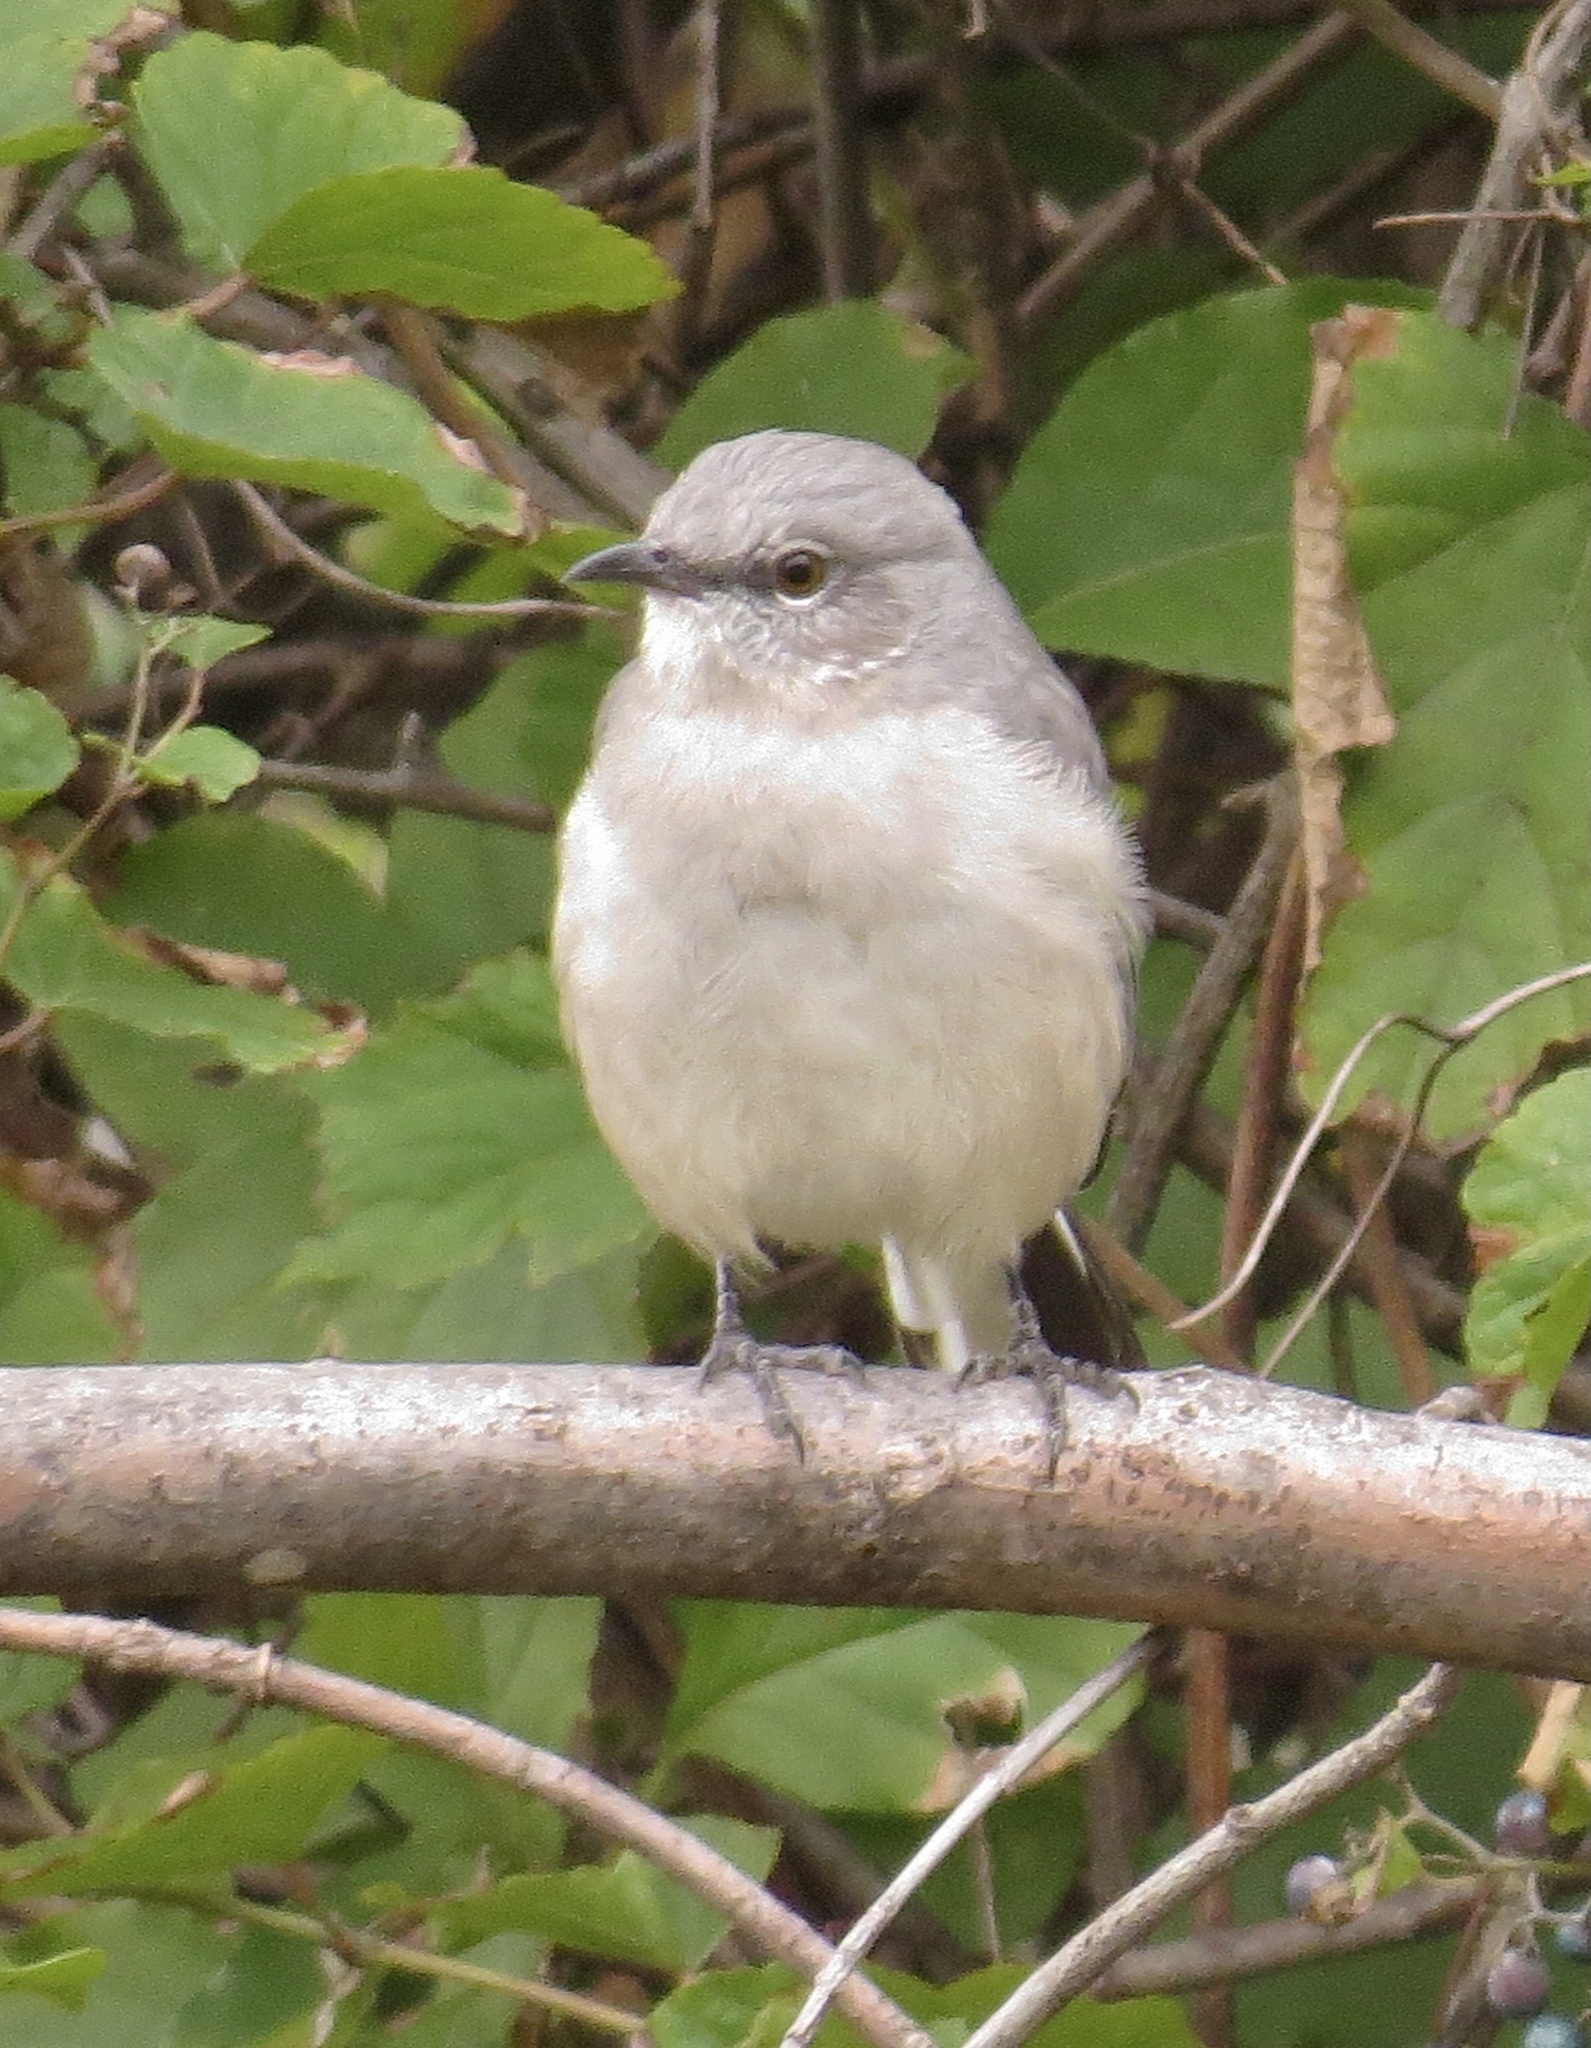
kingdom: Animalia
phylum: Chordata
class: Aves
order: Passeriformes
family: Mimidae
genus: Mimus
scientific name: Mimus polyglottos
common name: Northern mockingbird
